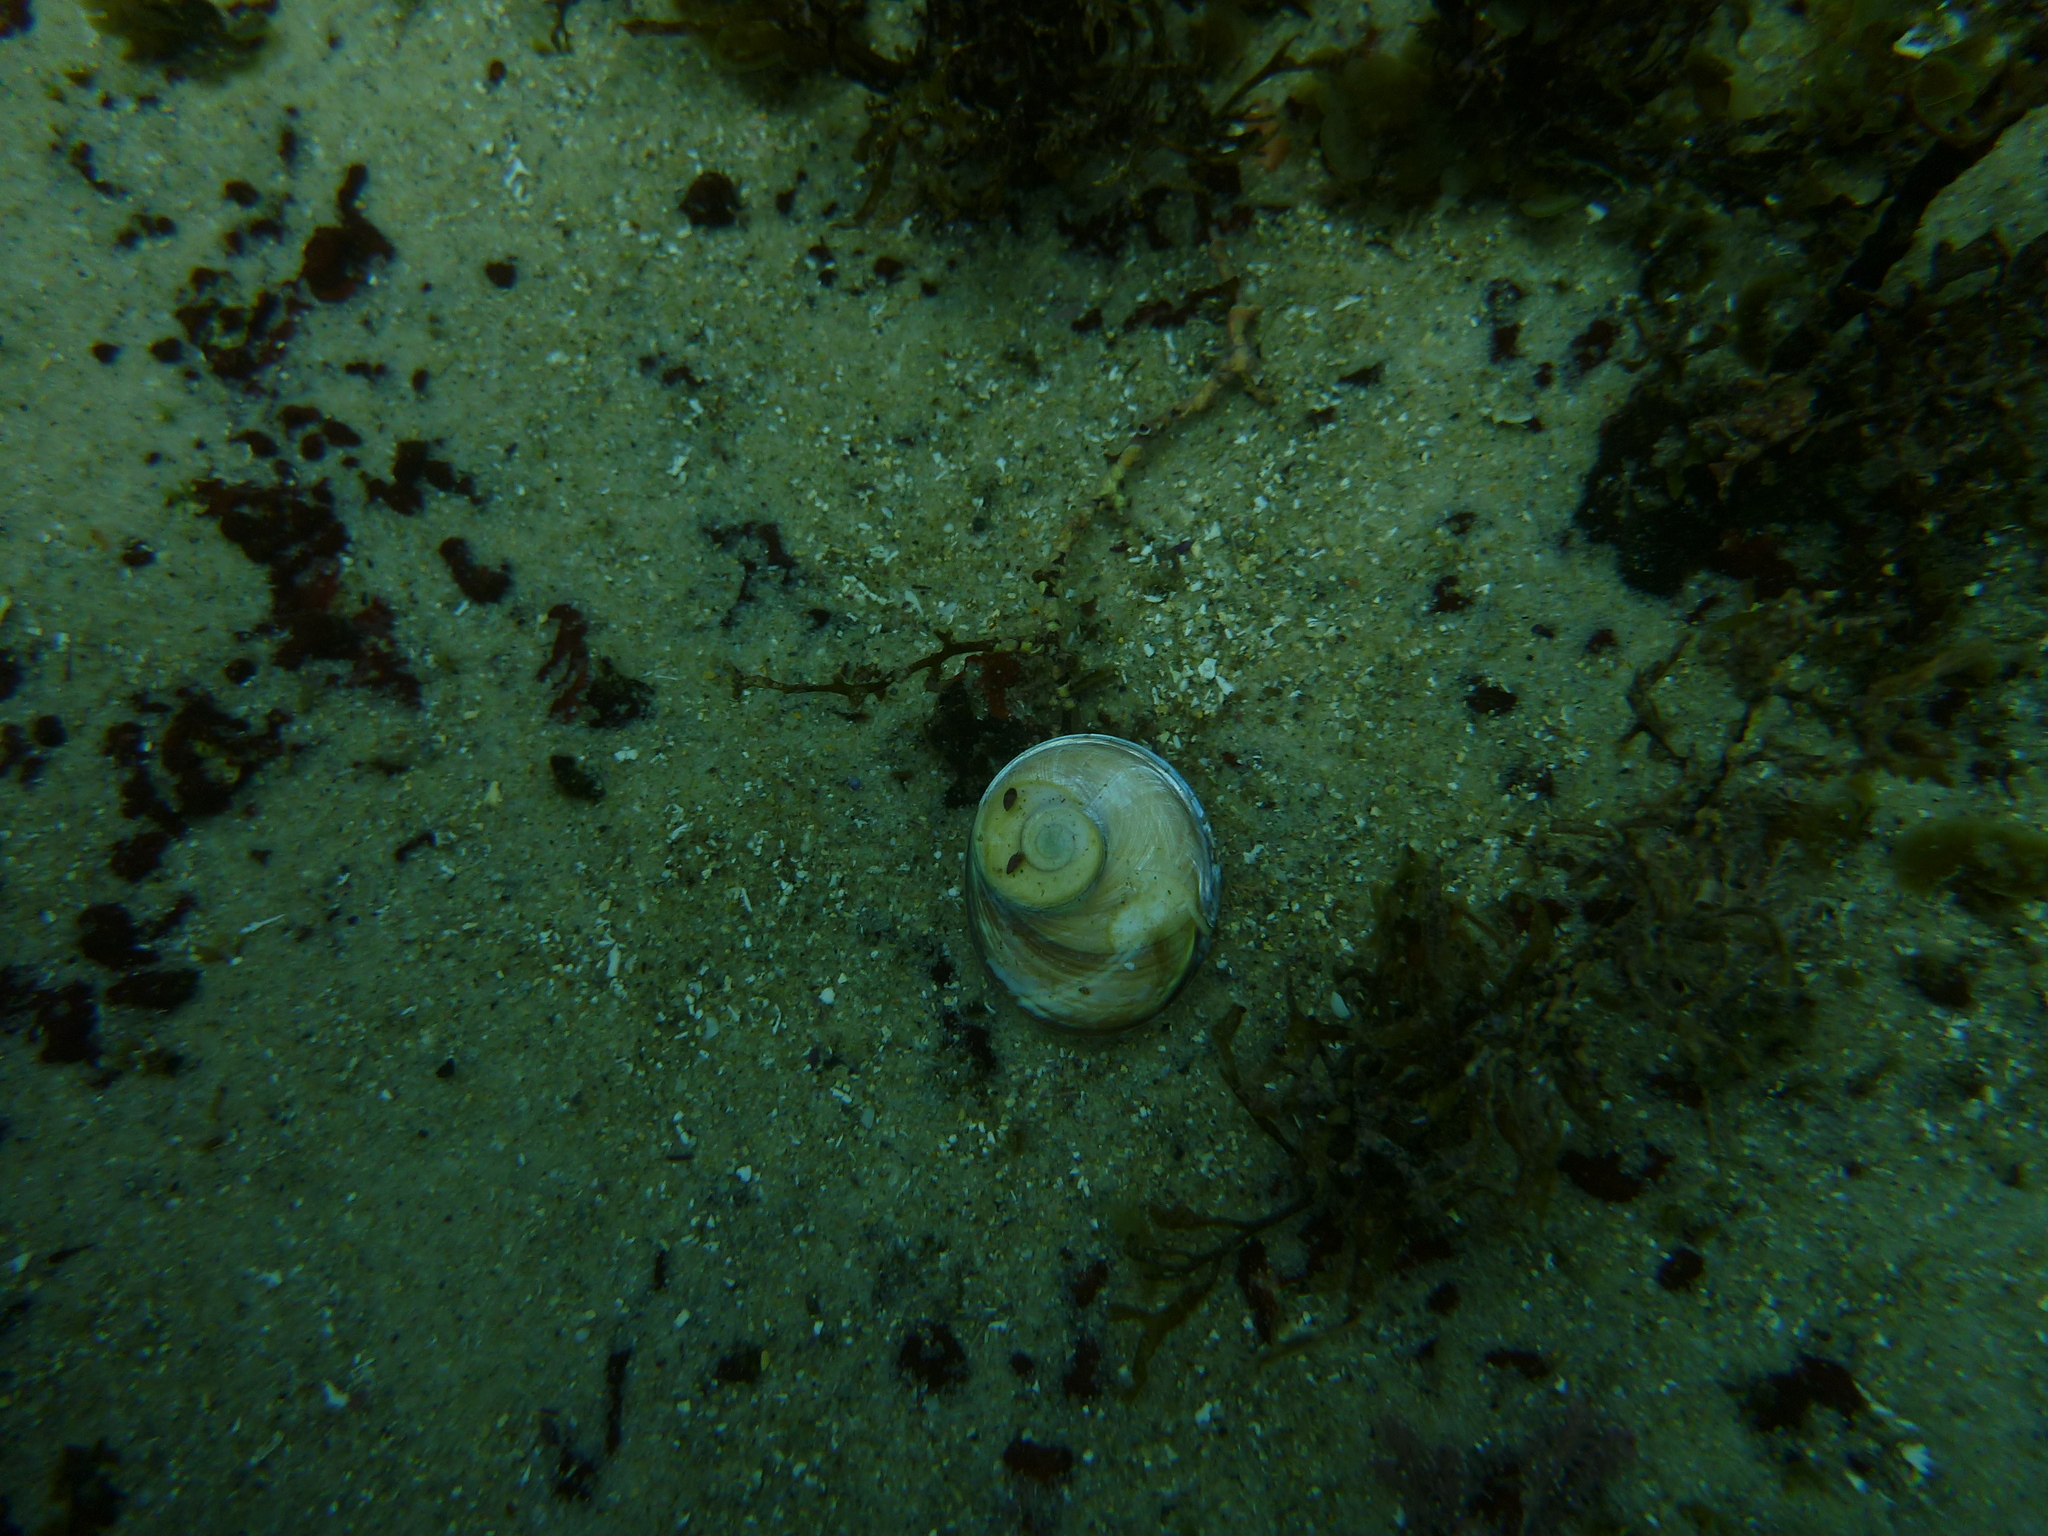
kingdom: Animalia
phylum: Mollusca
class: Gastropoda
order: Trochida
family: Turbinidae
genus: Turbo
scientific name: Turbo militaris
